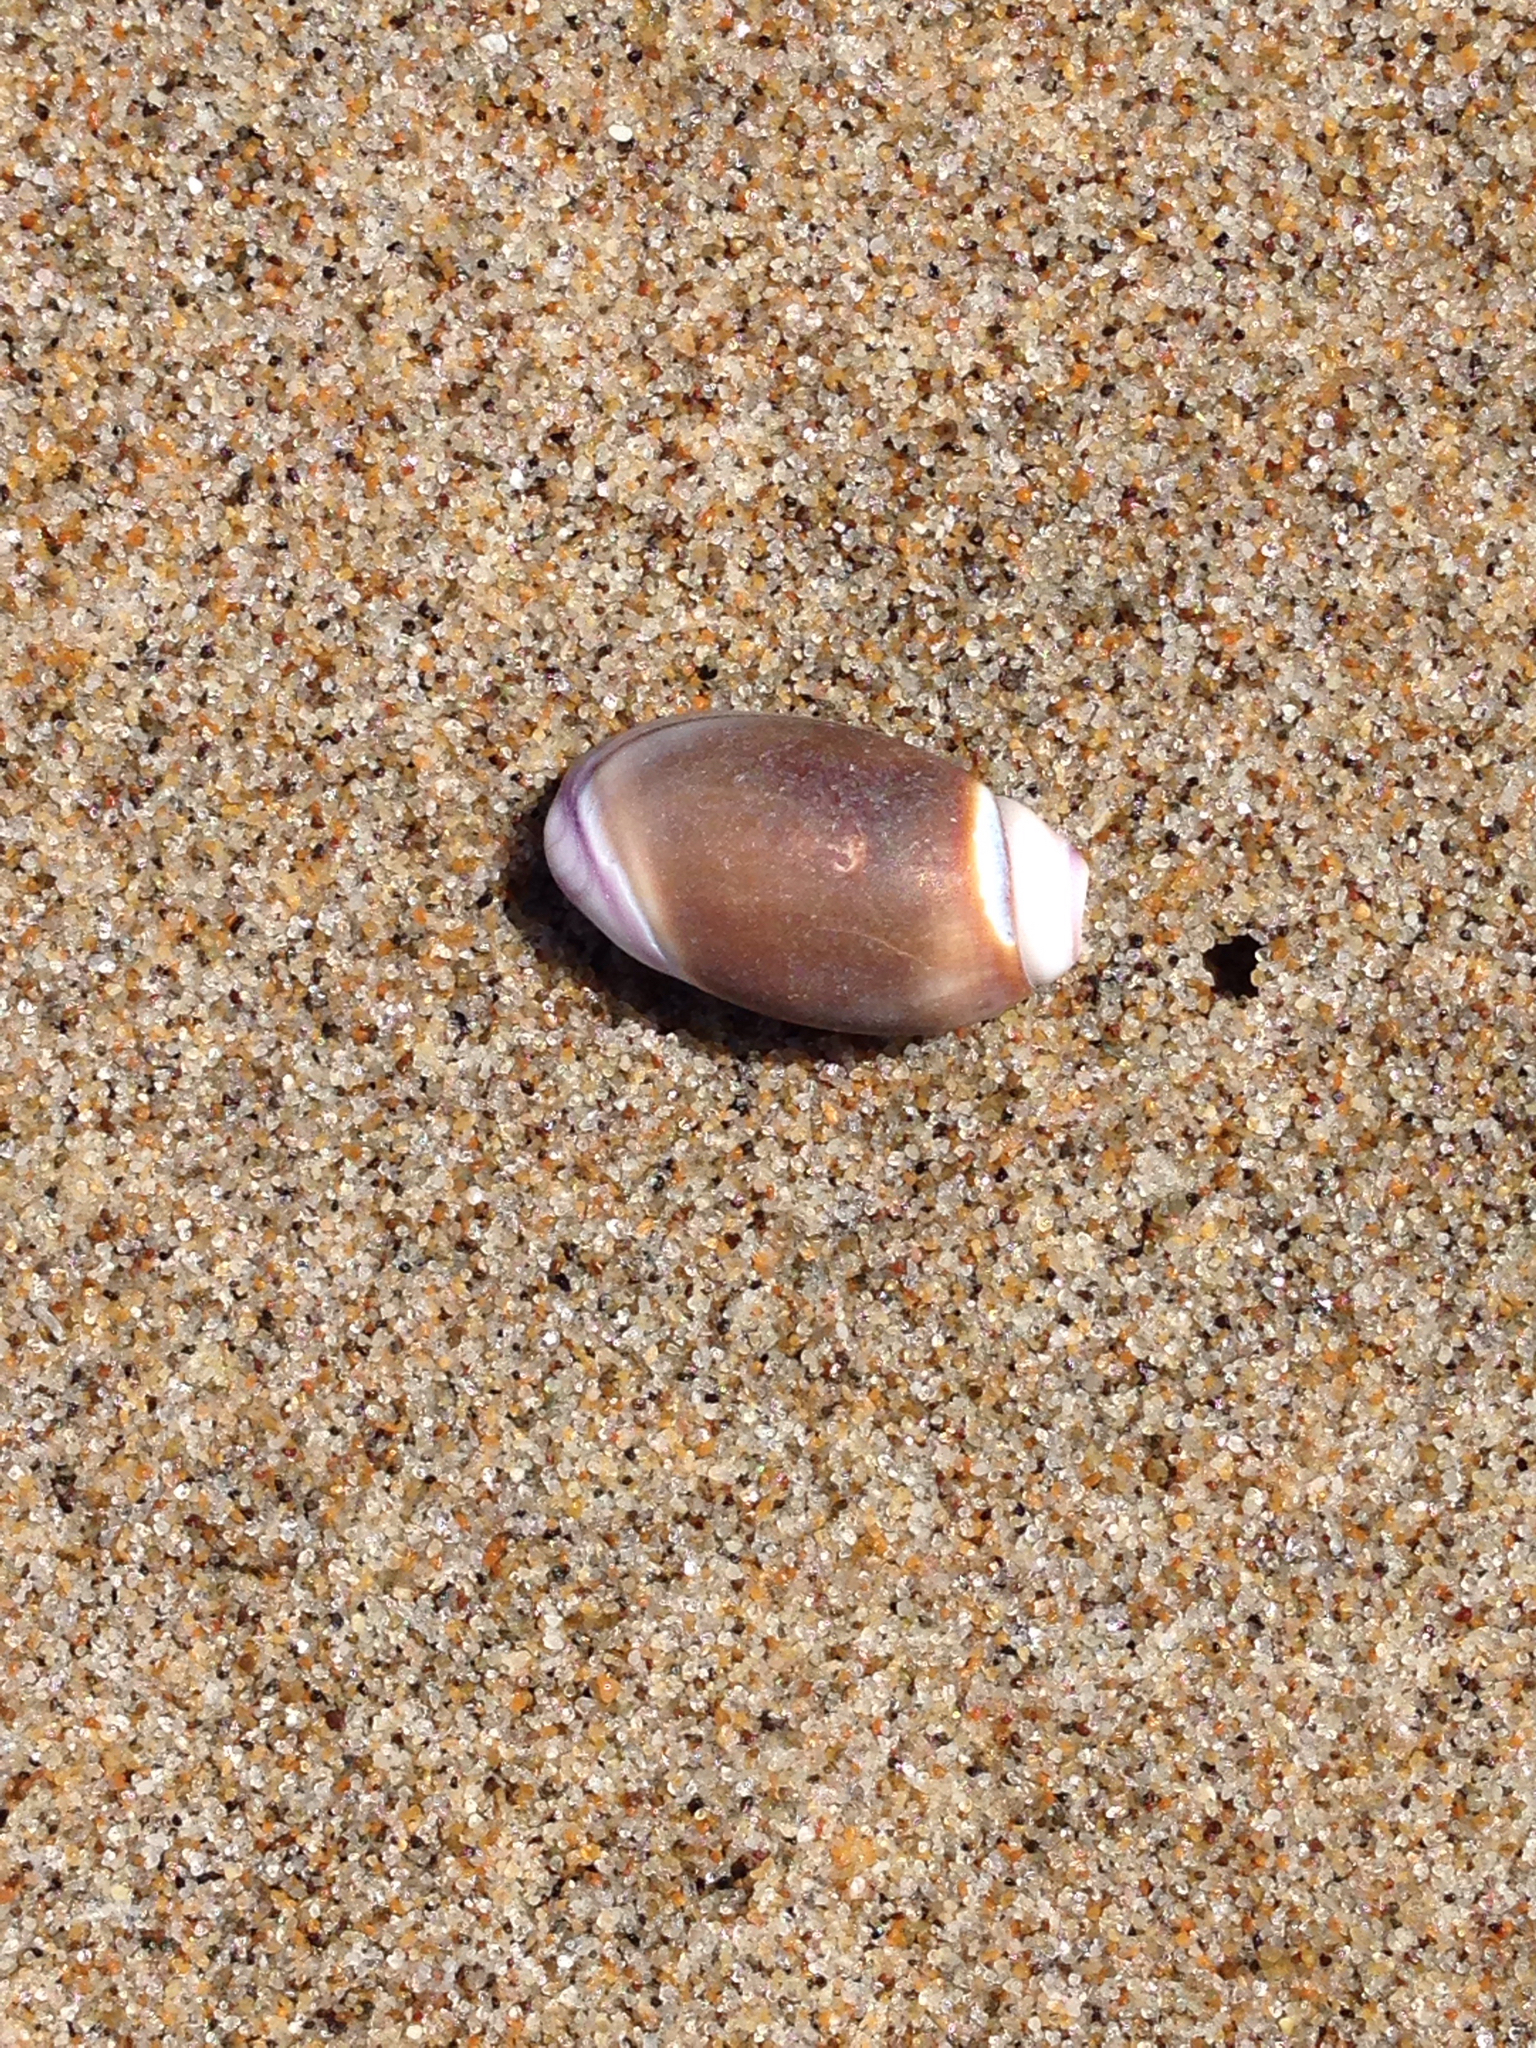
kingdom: Animalia
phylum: Mollusca
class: Gastropoda
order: Neogastropoda
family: Olividae
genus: Callianax
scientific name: Callianax biplicata
